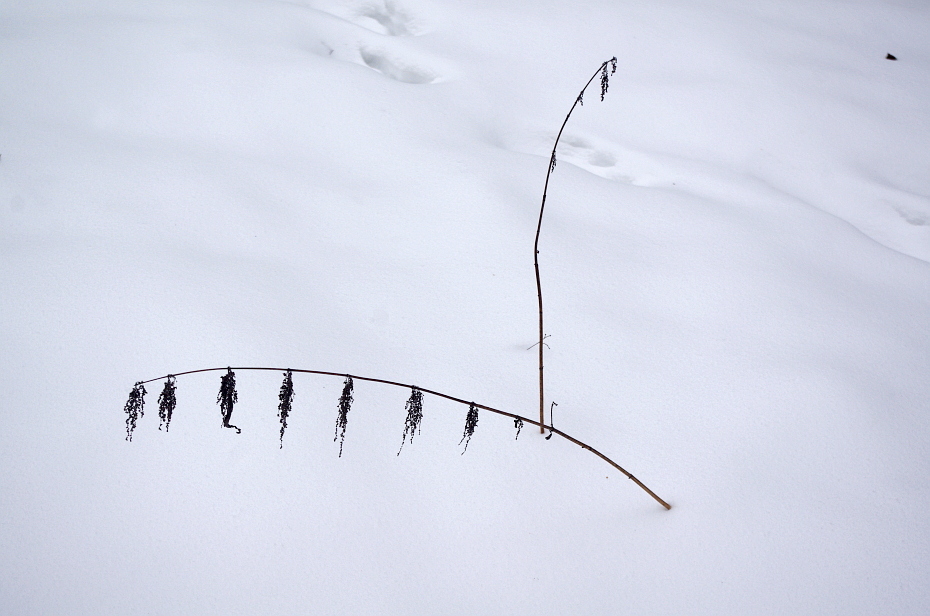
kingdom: Plantae
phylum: Tracheophyta
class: Magnoliopsida
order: Rosales
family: Urticaceae
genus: Urtica
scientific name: Urtica dioica
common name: Common nettle
